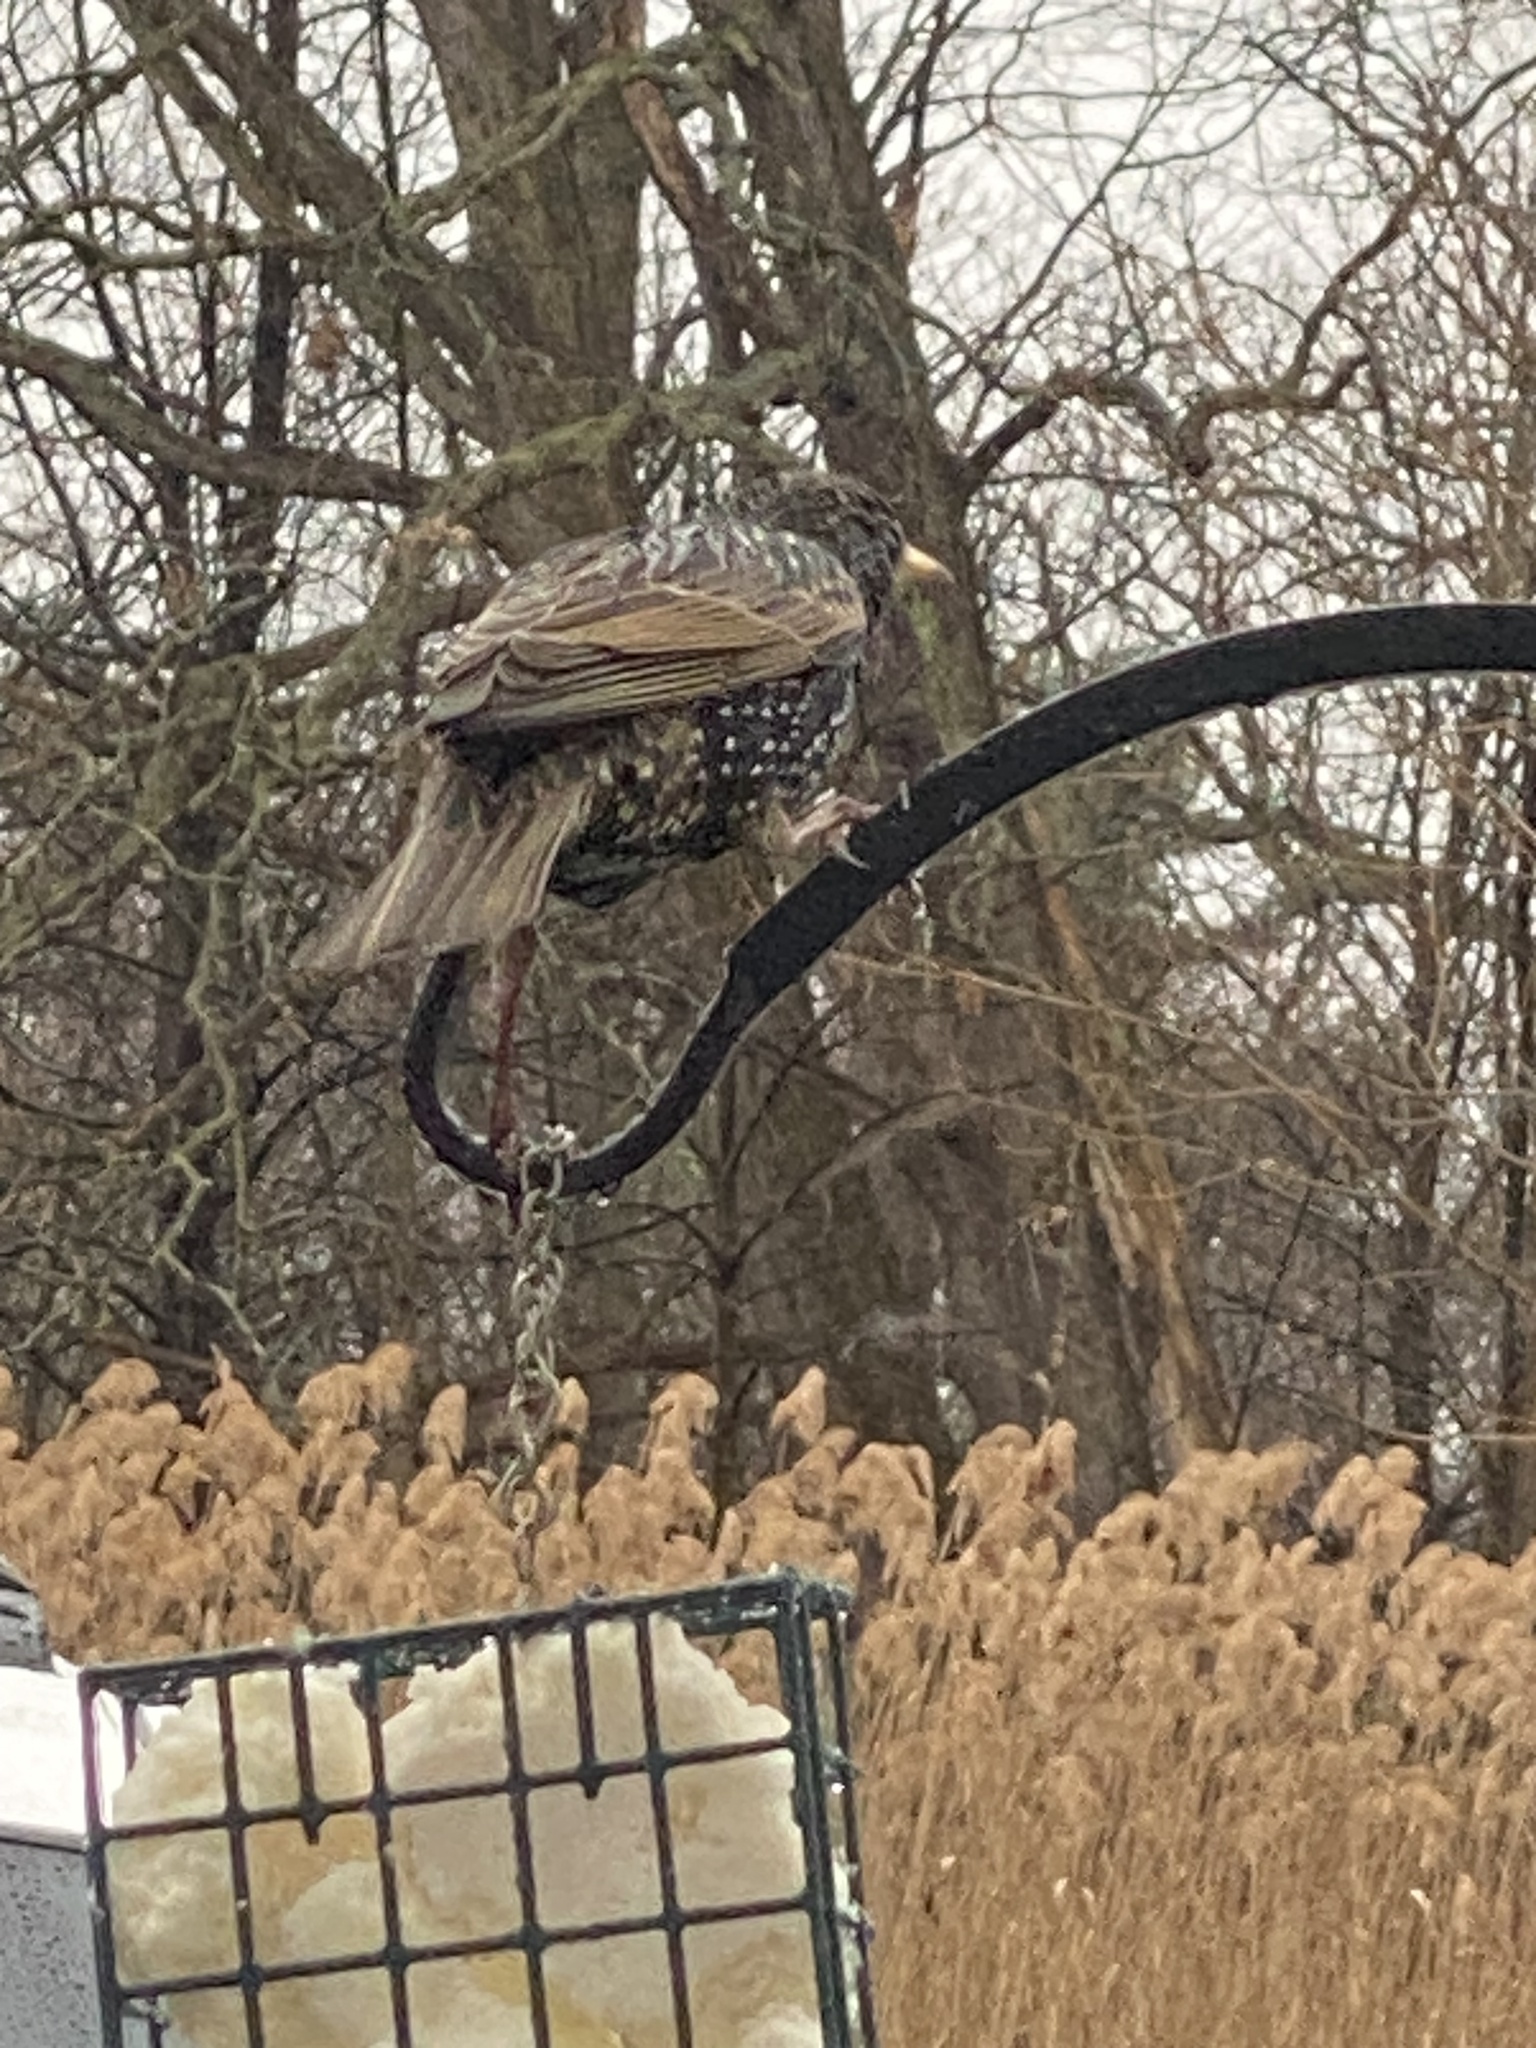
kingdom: Animalia
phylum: Chordata
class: Aves
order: Passeriformes
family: Sturnidae
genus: Sturnus
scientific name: Sturnus vulgaris
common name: Common starling
